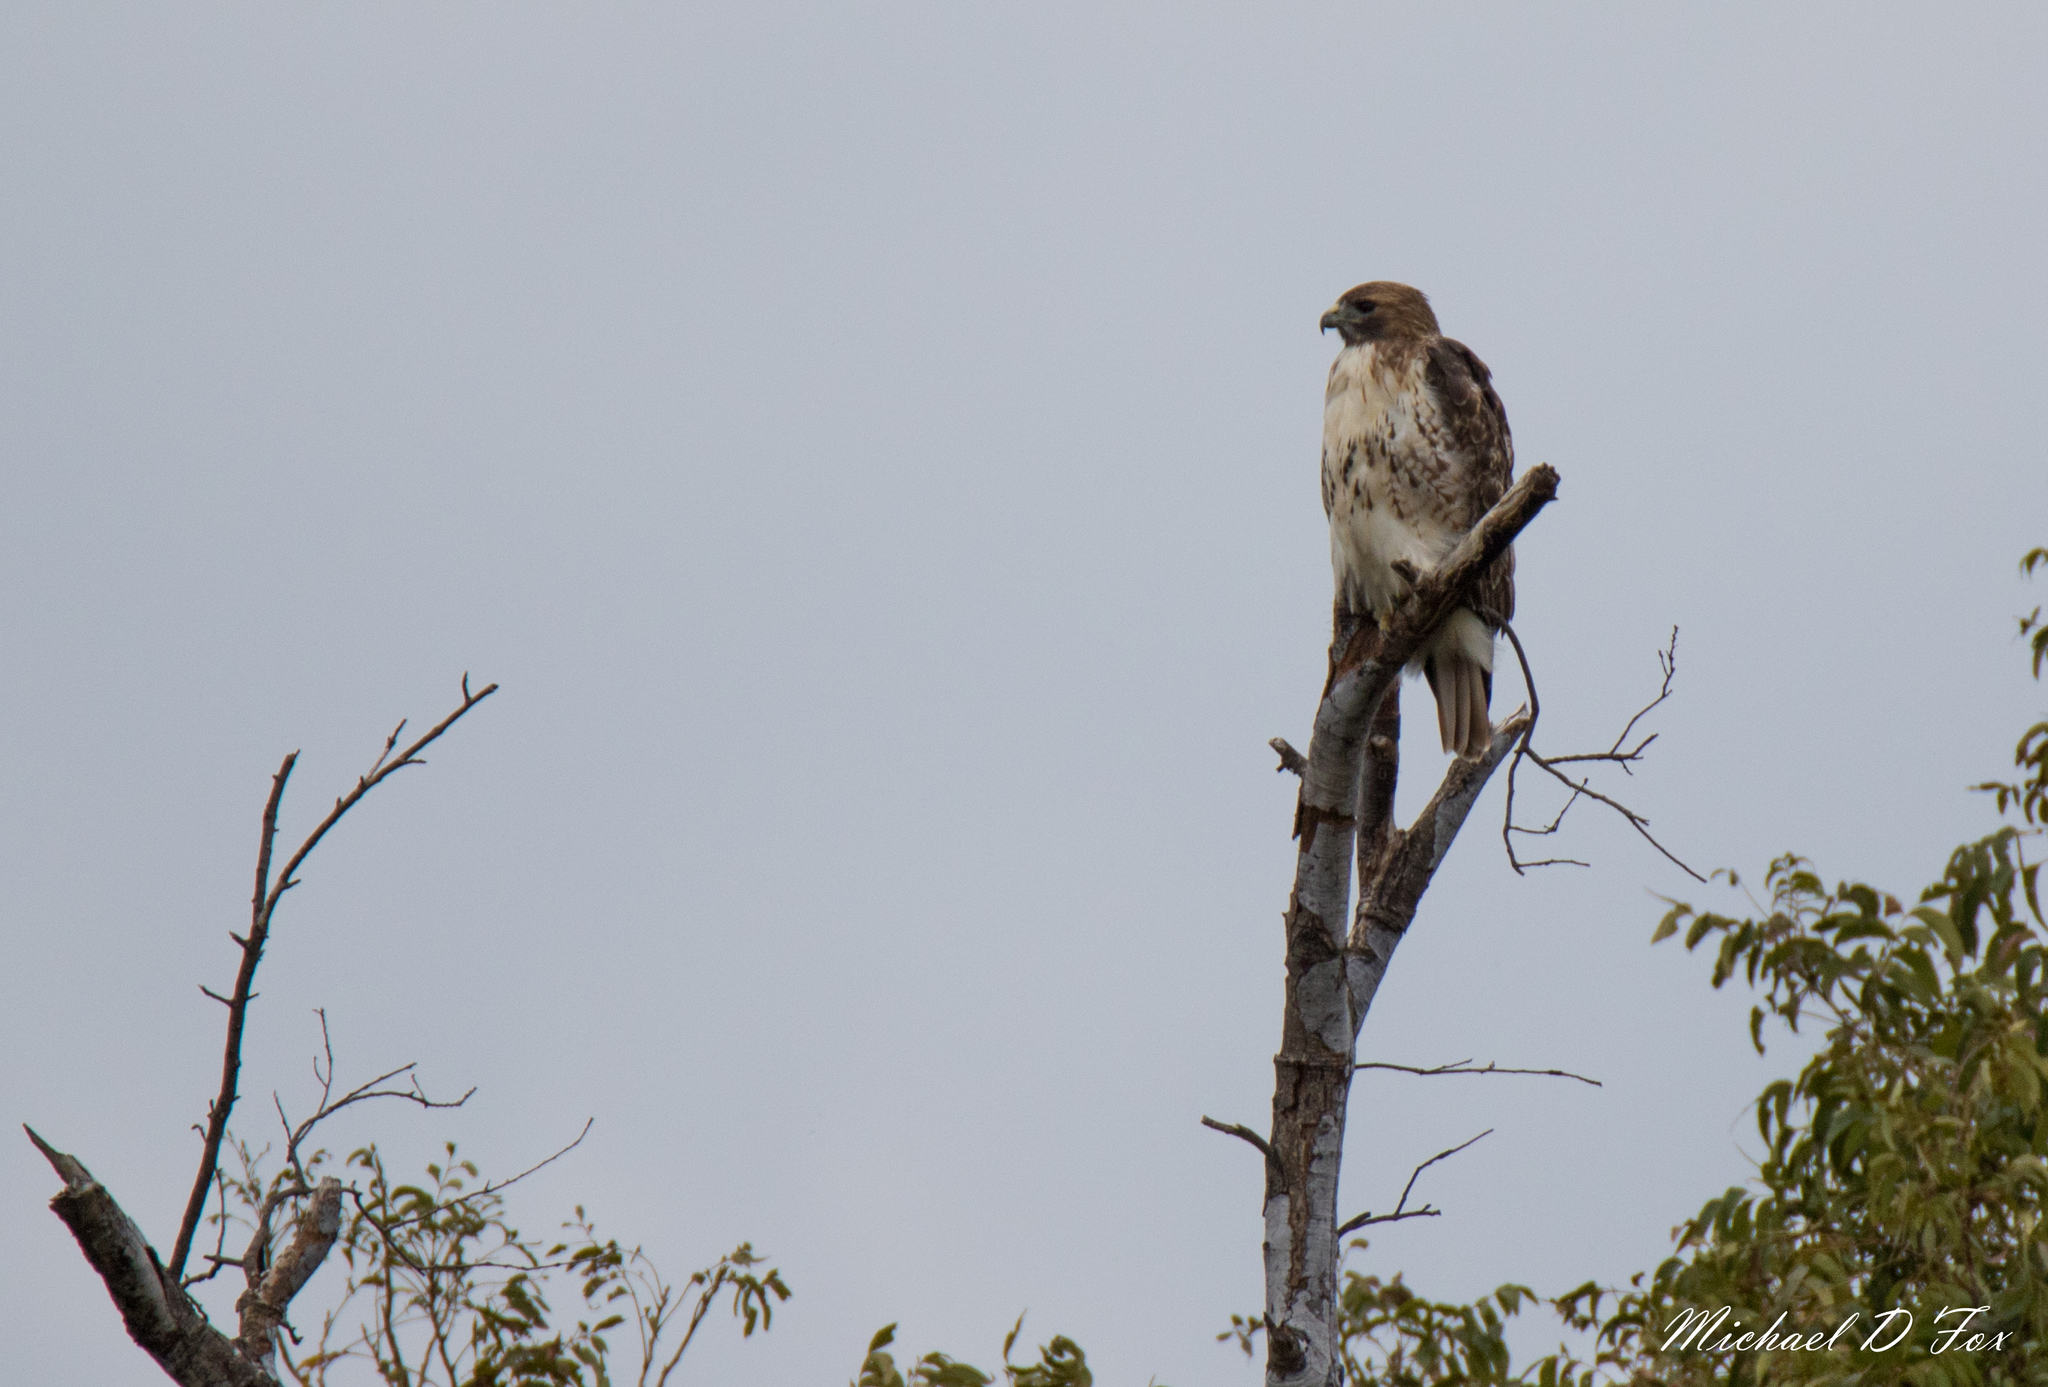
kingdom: Animalia
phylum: Chordata
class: Aves
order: Accipitriformes
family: Accipitridae
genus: Buteo
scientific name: Buteo jamaicensis
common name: Red-tailed hawk
